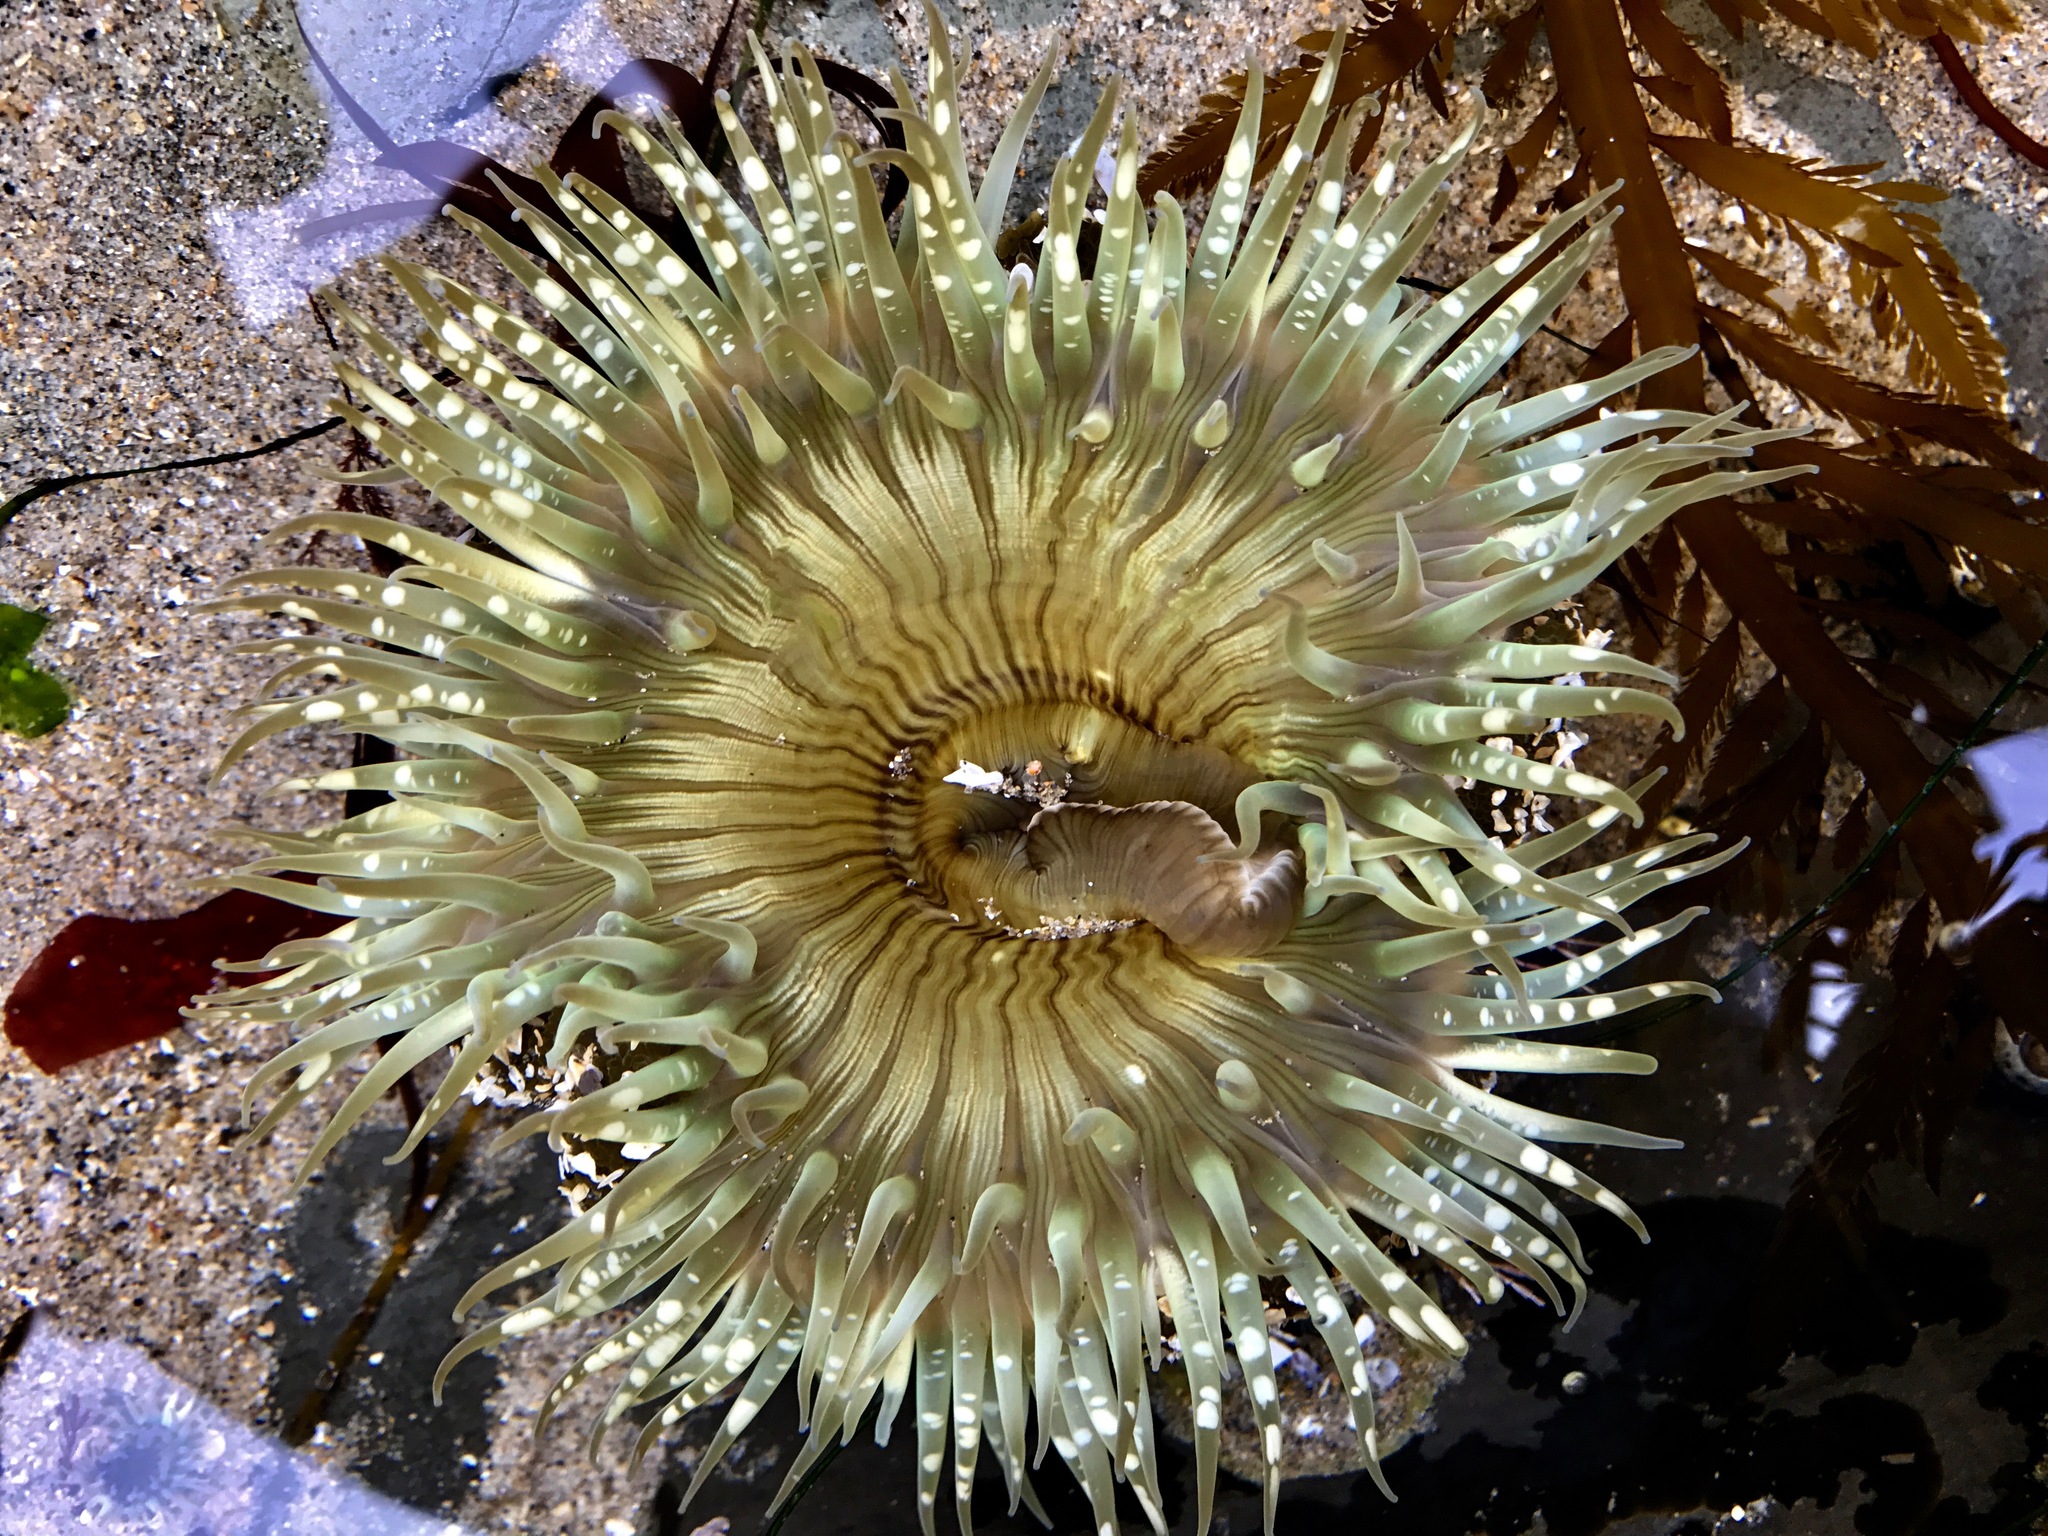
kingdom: Animalia
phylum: Cnidaria
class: Anthozoa
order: Actiniaria
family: Actiniidae
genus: Anthopleura
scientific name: Anthopleura sola
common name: Sun anemone
